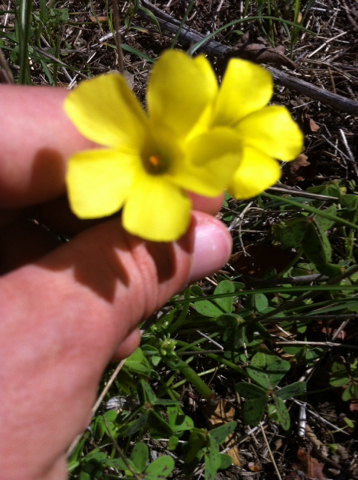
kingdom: Plantae
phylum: Tracheophyta
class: Magnoliopsida
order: Oxalidales
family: Oxalidaceae
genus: Oxalis
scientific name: Oxalis pes-caprae
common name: Bermuda-buttercup
